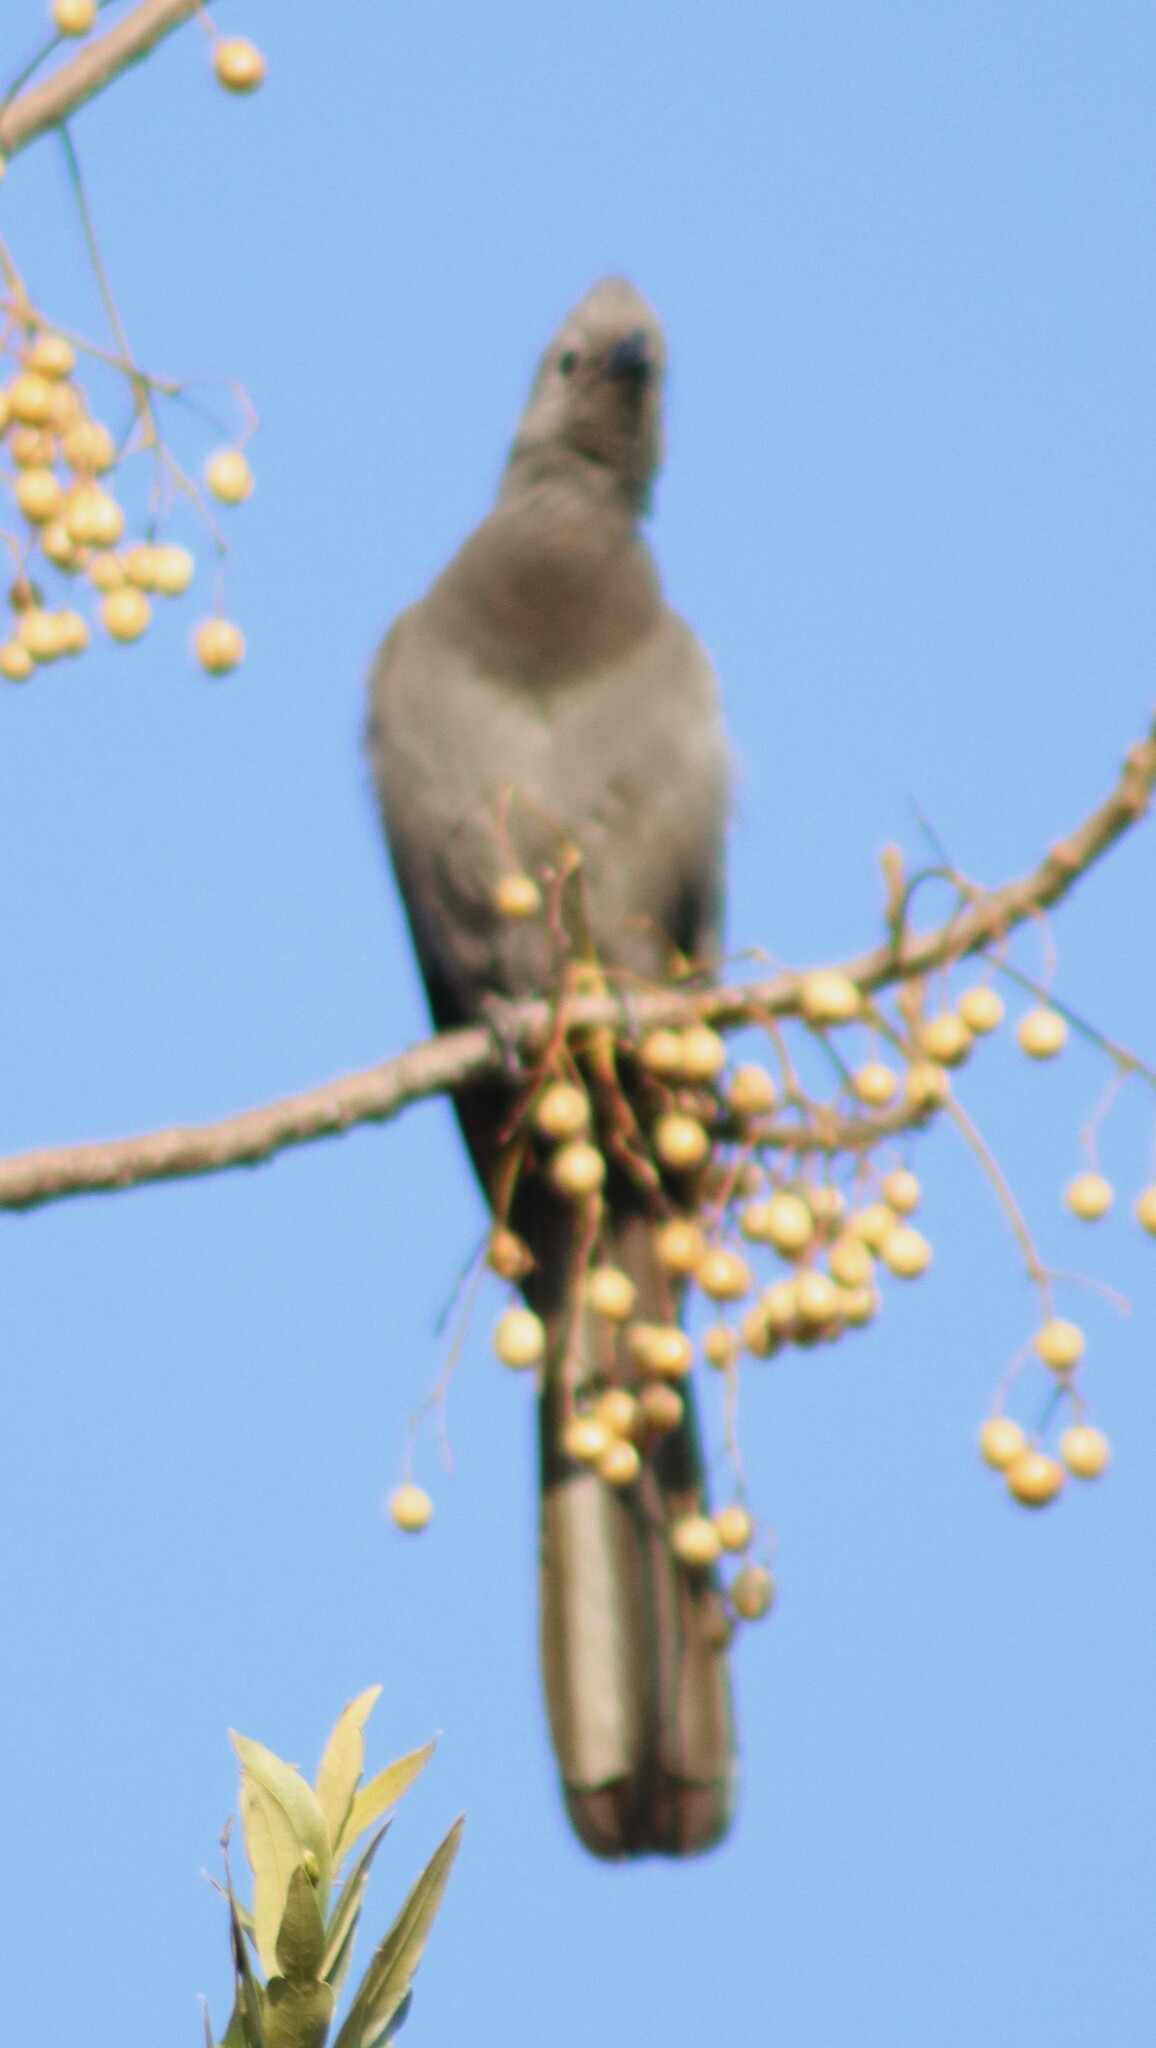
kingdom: Animalia
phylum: Chordata
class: Aves
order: Musophagiformes
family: Musophagidae
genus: Corythaixoides
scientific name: Corythaixoides concolor
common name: Grey go-away-bird
